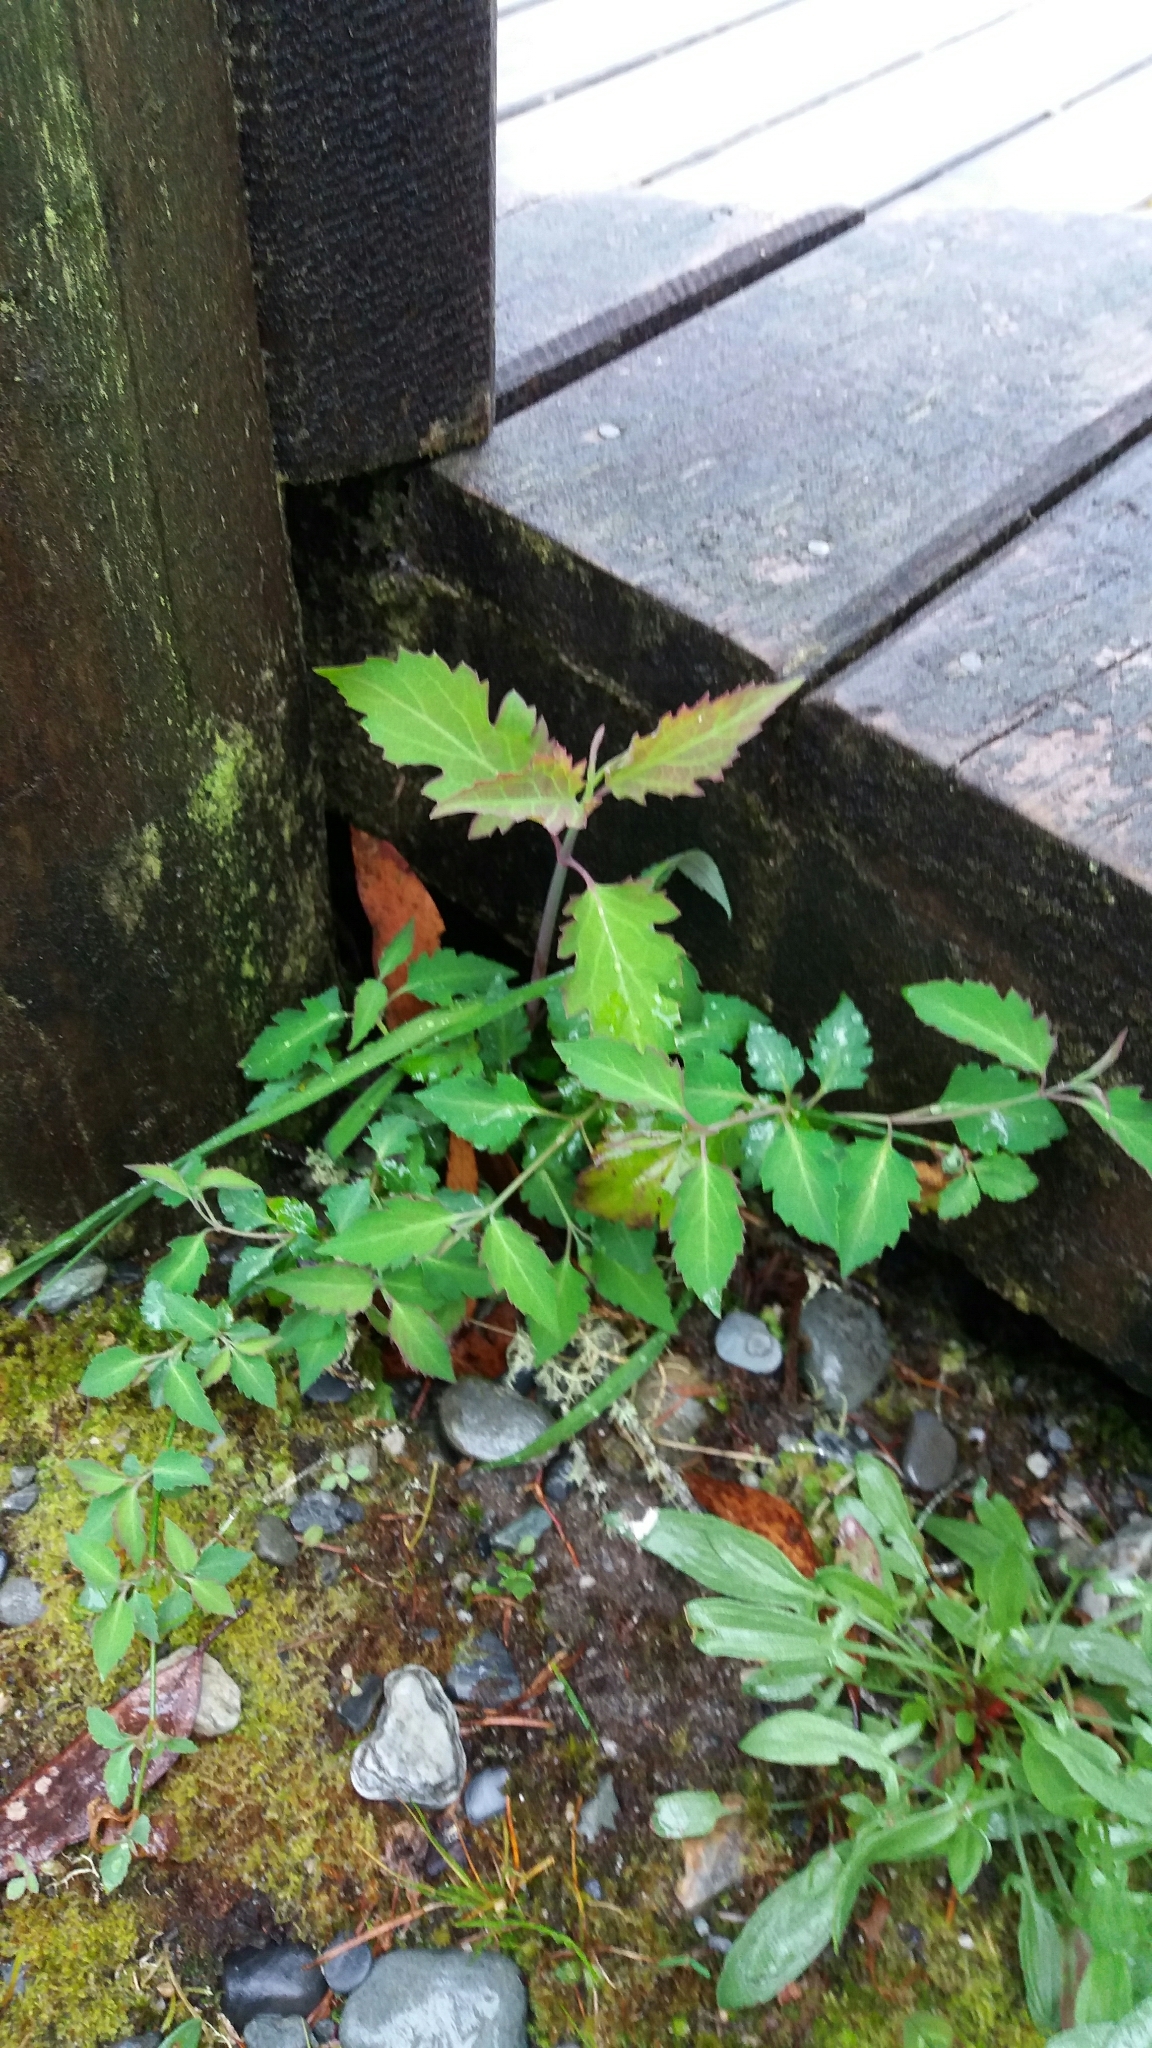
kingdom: Plantae
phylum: Tracheophyta
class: Magnoliopsida
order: Dipsacales
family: Caprifoliaceae
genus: Leycesteria
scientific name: Leycesteria formosa
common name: Himalayan honeysuckle
